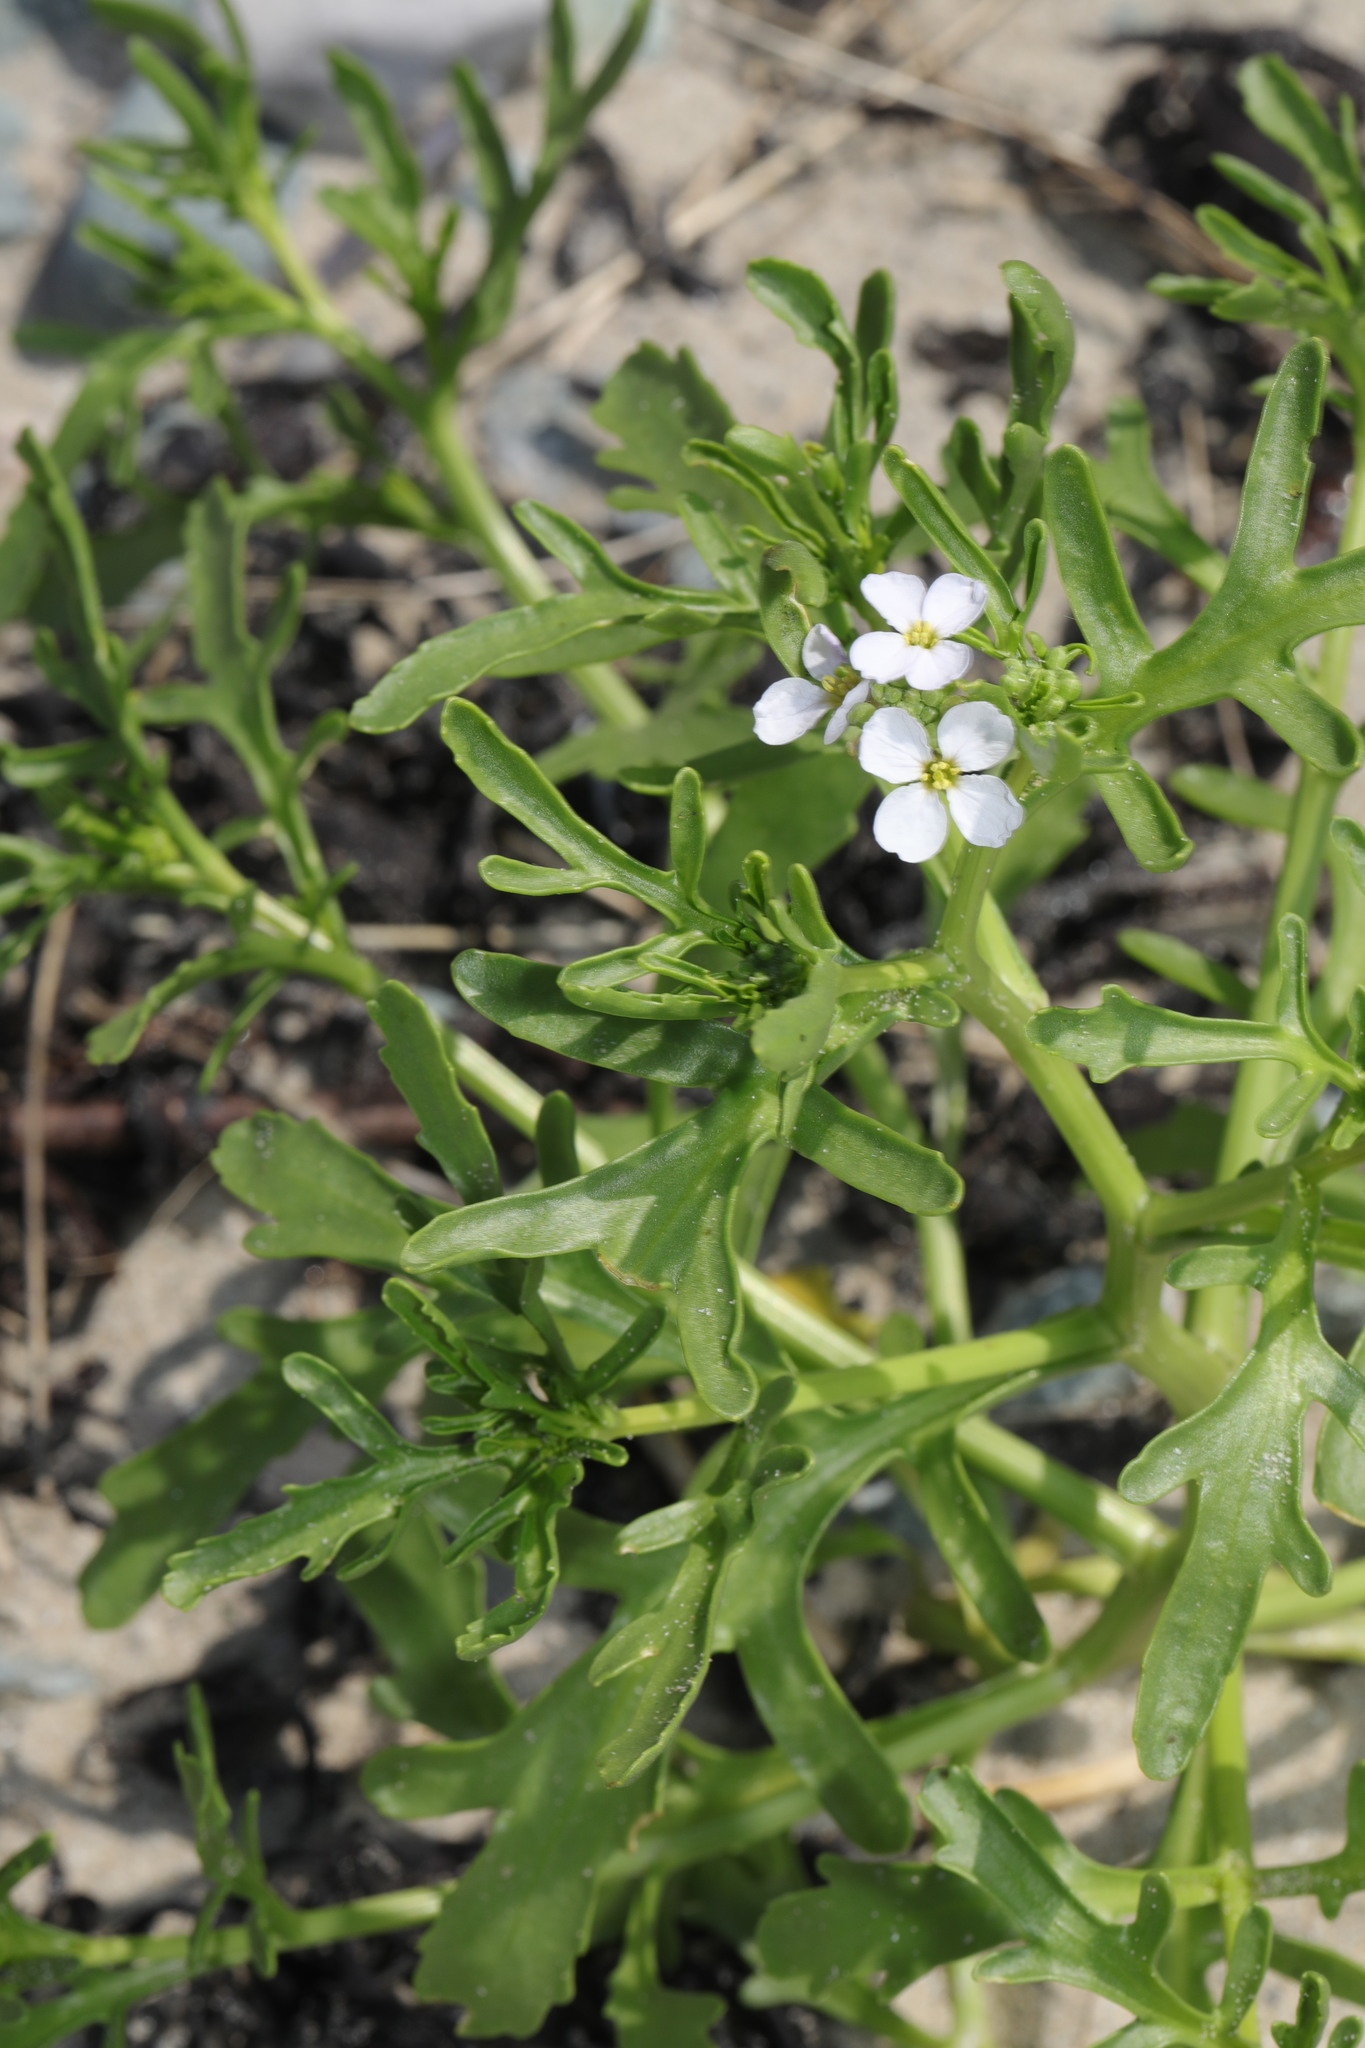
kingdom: Plantae
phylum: Tracheophyta
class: Magnoliopsida
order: Brassicales
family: Brassicaceae
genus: Cakile
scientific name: Cakile maritima
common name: Sea rocket
